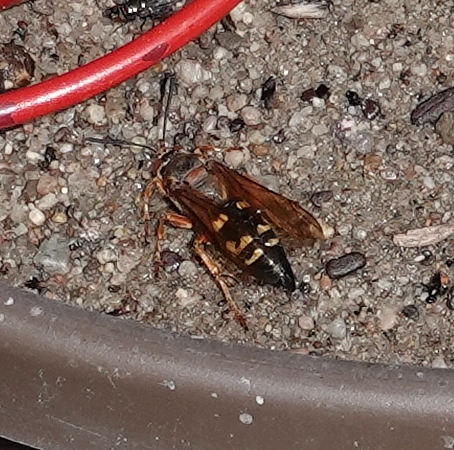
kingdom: Animalia
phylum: Arthropoda
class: Insecta
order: Hymenoptera
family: Crabronidae
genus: Sphecius
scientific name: Sphecius speciosus
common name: Cicada killer
